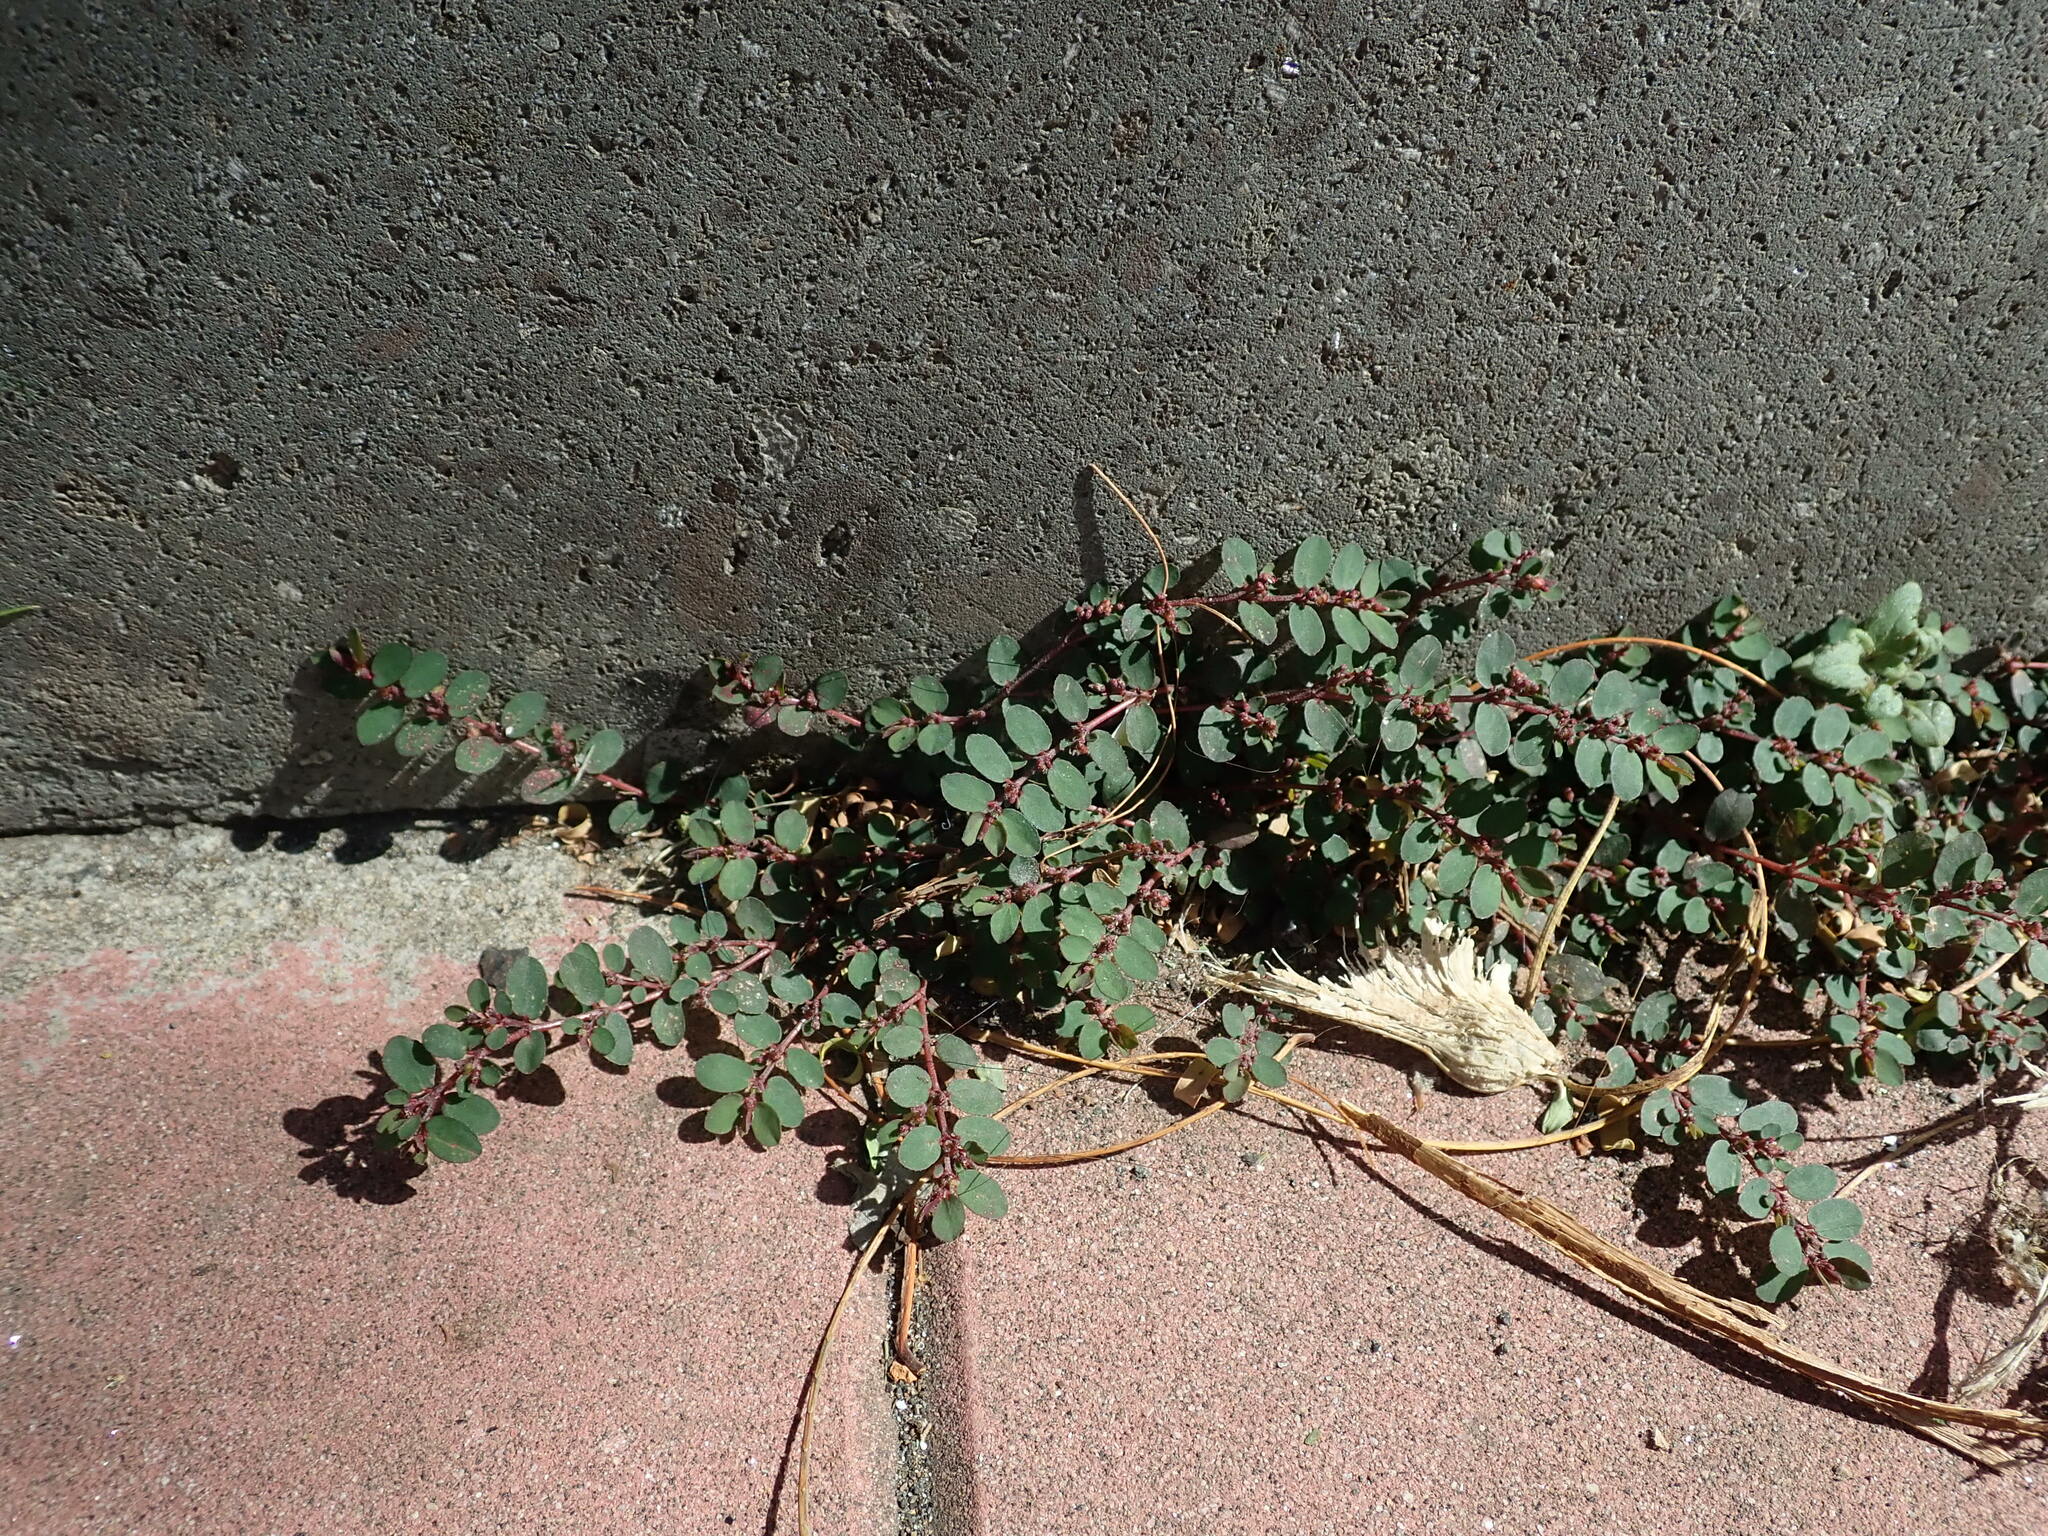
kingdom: Plantae
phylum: Tracheophyta
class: Magnoliopsida
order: Malpighiales
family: Euphorbiaceae
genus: Euphorbia
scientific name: Euphorbia prostrata
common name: Prostrate sandmat
